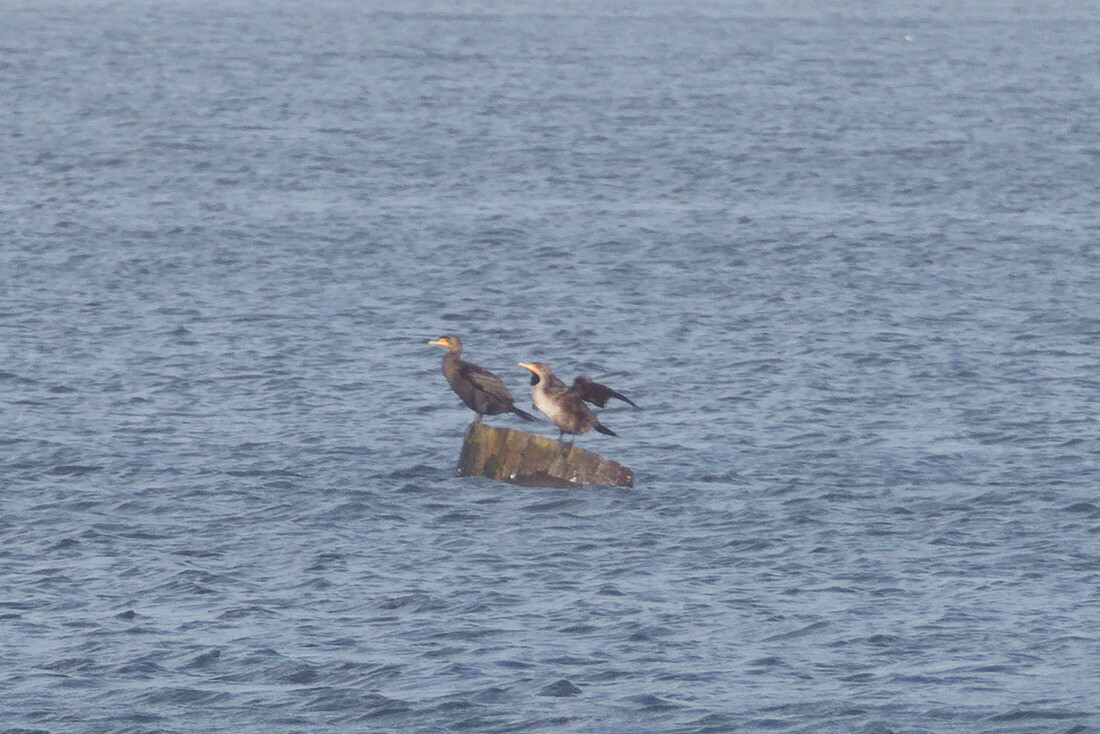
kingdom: Animalia
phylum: Chordata
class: Aves
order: Suliformes
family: Phalacrocoracidae
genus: Phalacrocorax
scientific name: Phalacrocorax auritus
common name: Double-crested cormorant
